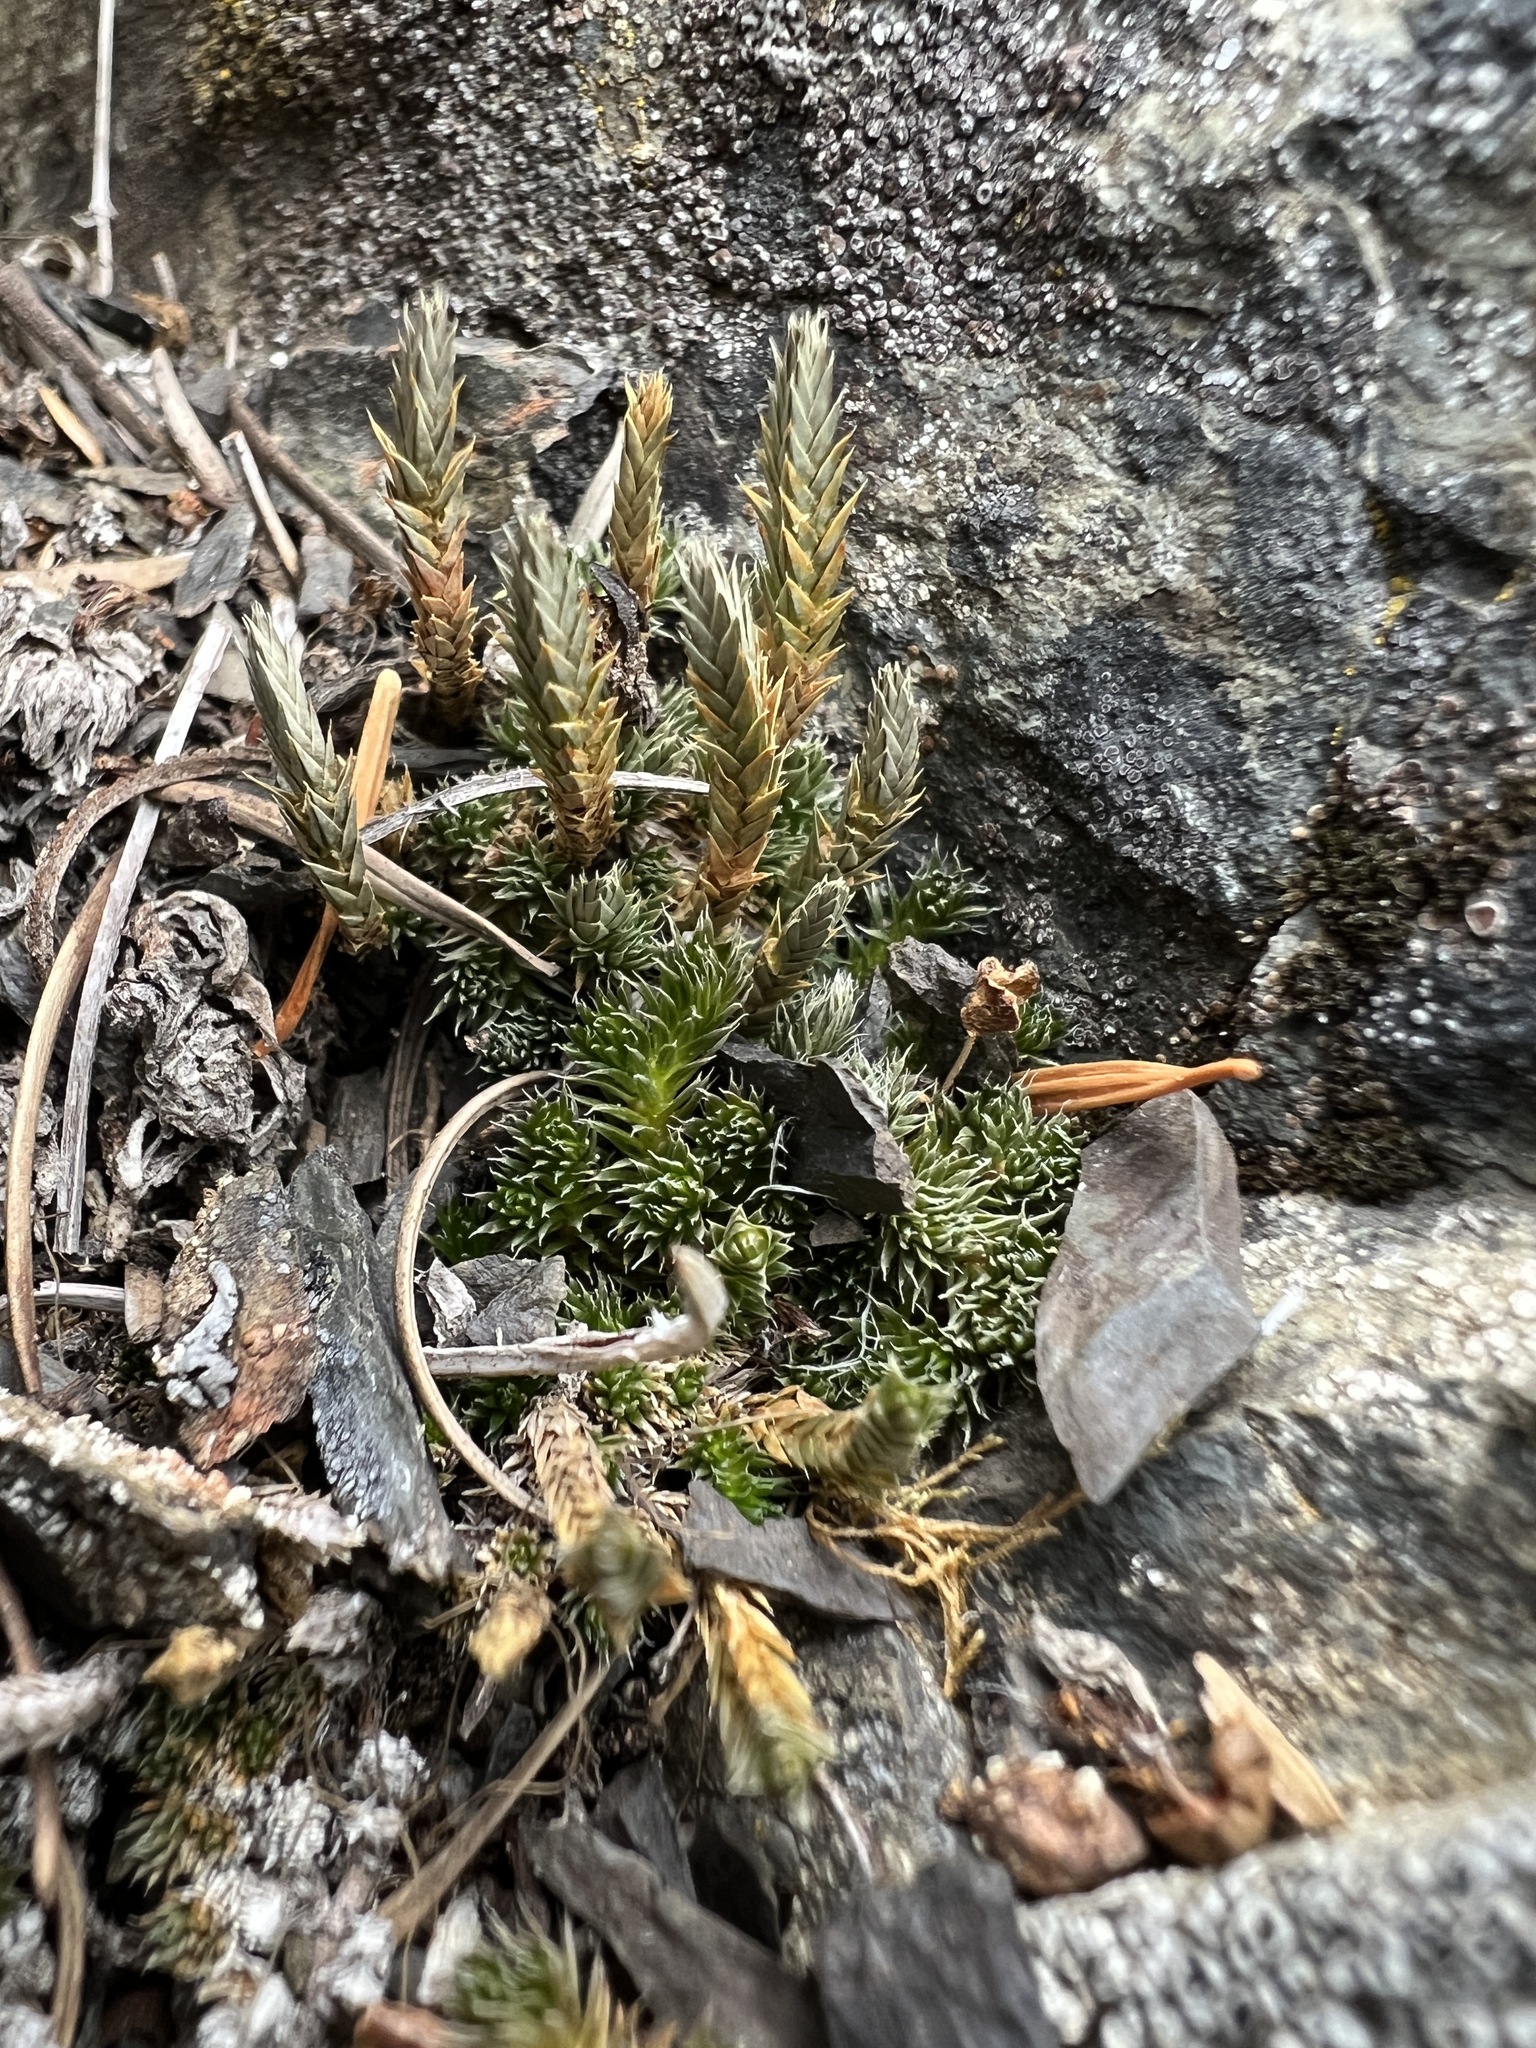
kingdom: Plantae
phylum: Tracheophyta
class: Lycopodiopsida
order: Selaginellales
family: Selaginellaceae
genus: Selaginella
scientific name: Selaginella densa
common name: Mountain spike-moss
